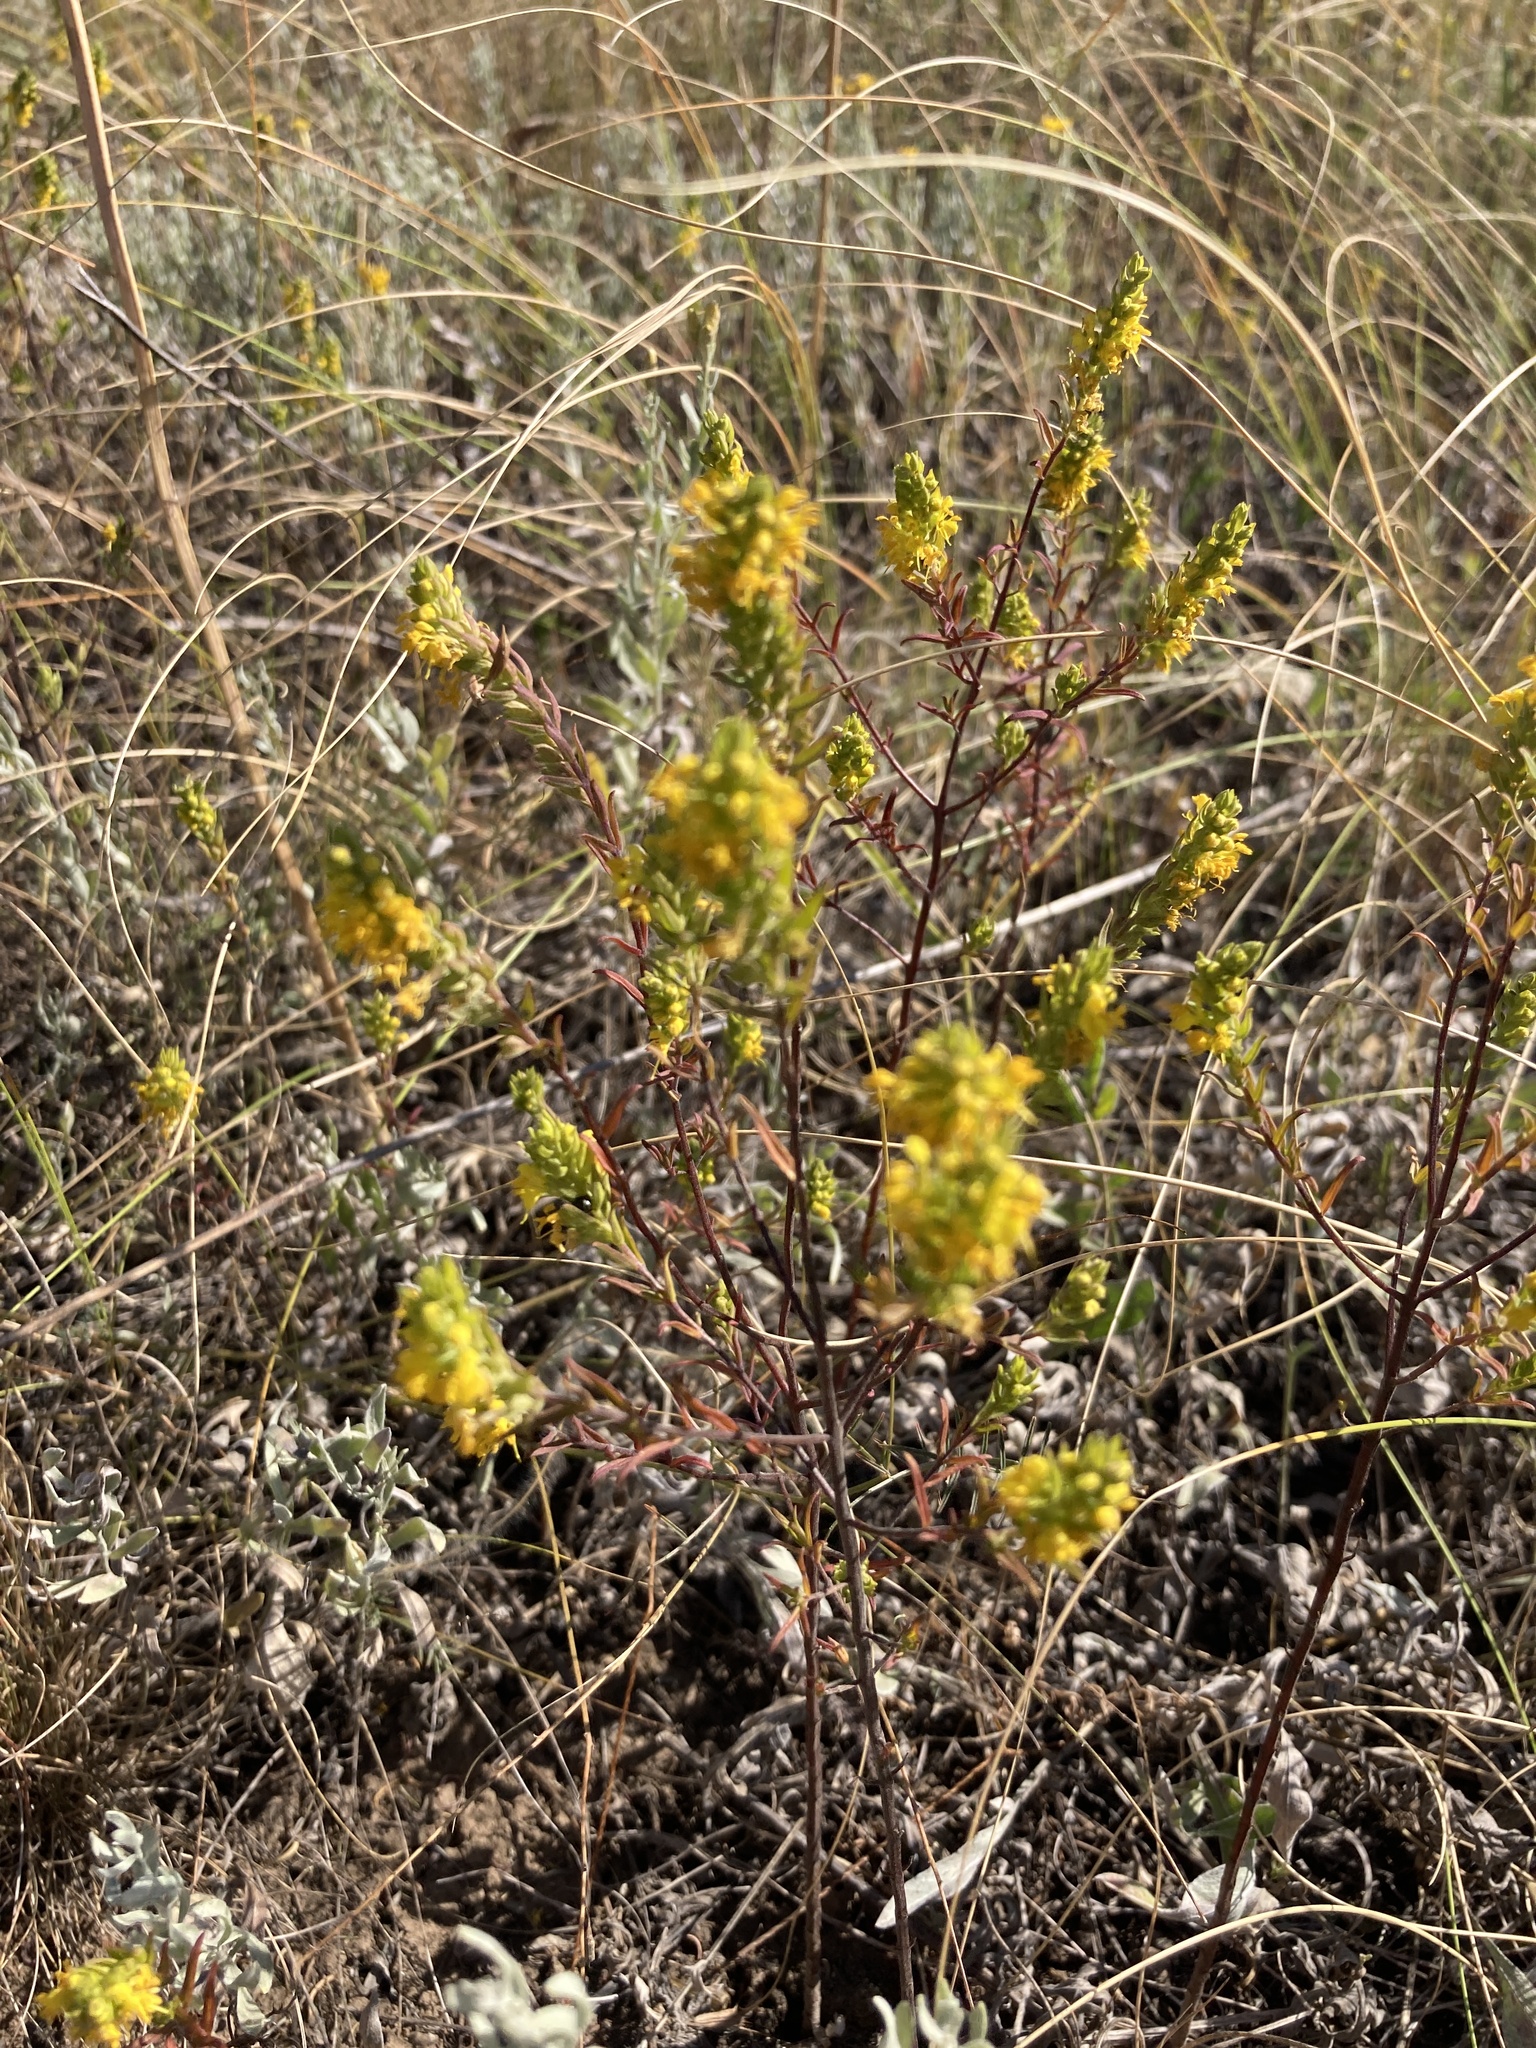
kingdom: Plantae
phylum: Tracheophyta
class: Magnoliopsida
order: Lamiales
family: Orobanchaceae
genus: Odontites
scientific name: Odontites luteus
